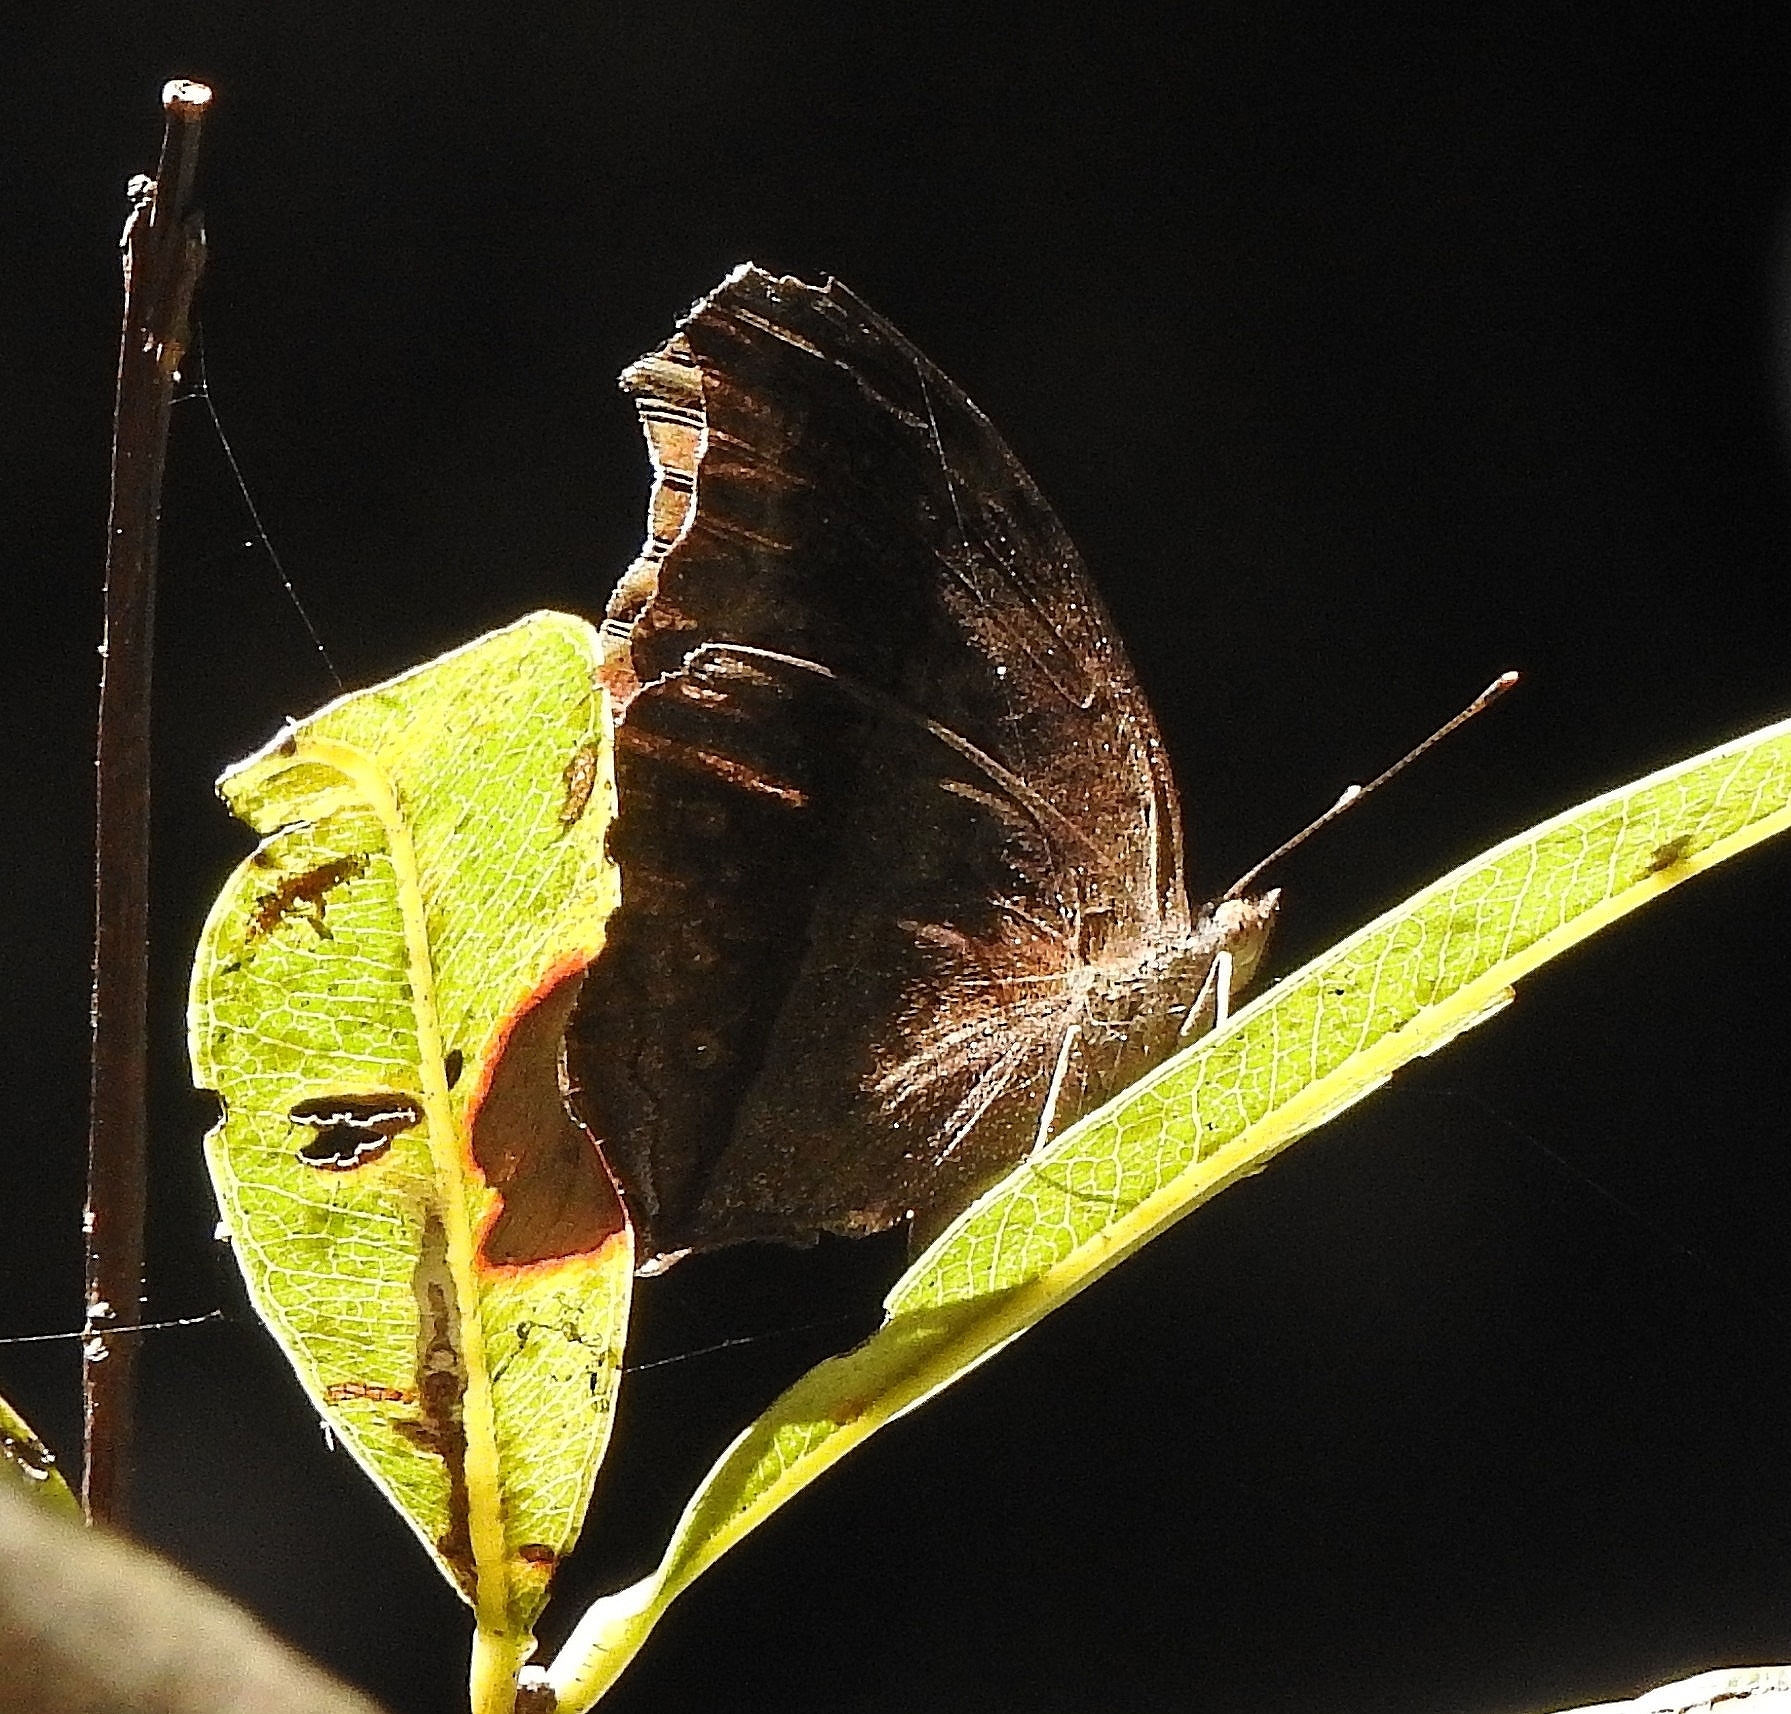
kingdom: Animalia
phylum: Arthropoda
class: Insecta
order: Lepidoptera
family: Nymphalidae
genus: Junonia
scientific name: Junonia iphita
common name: Chocolate pansy
